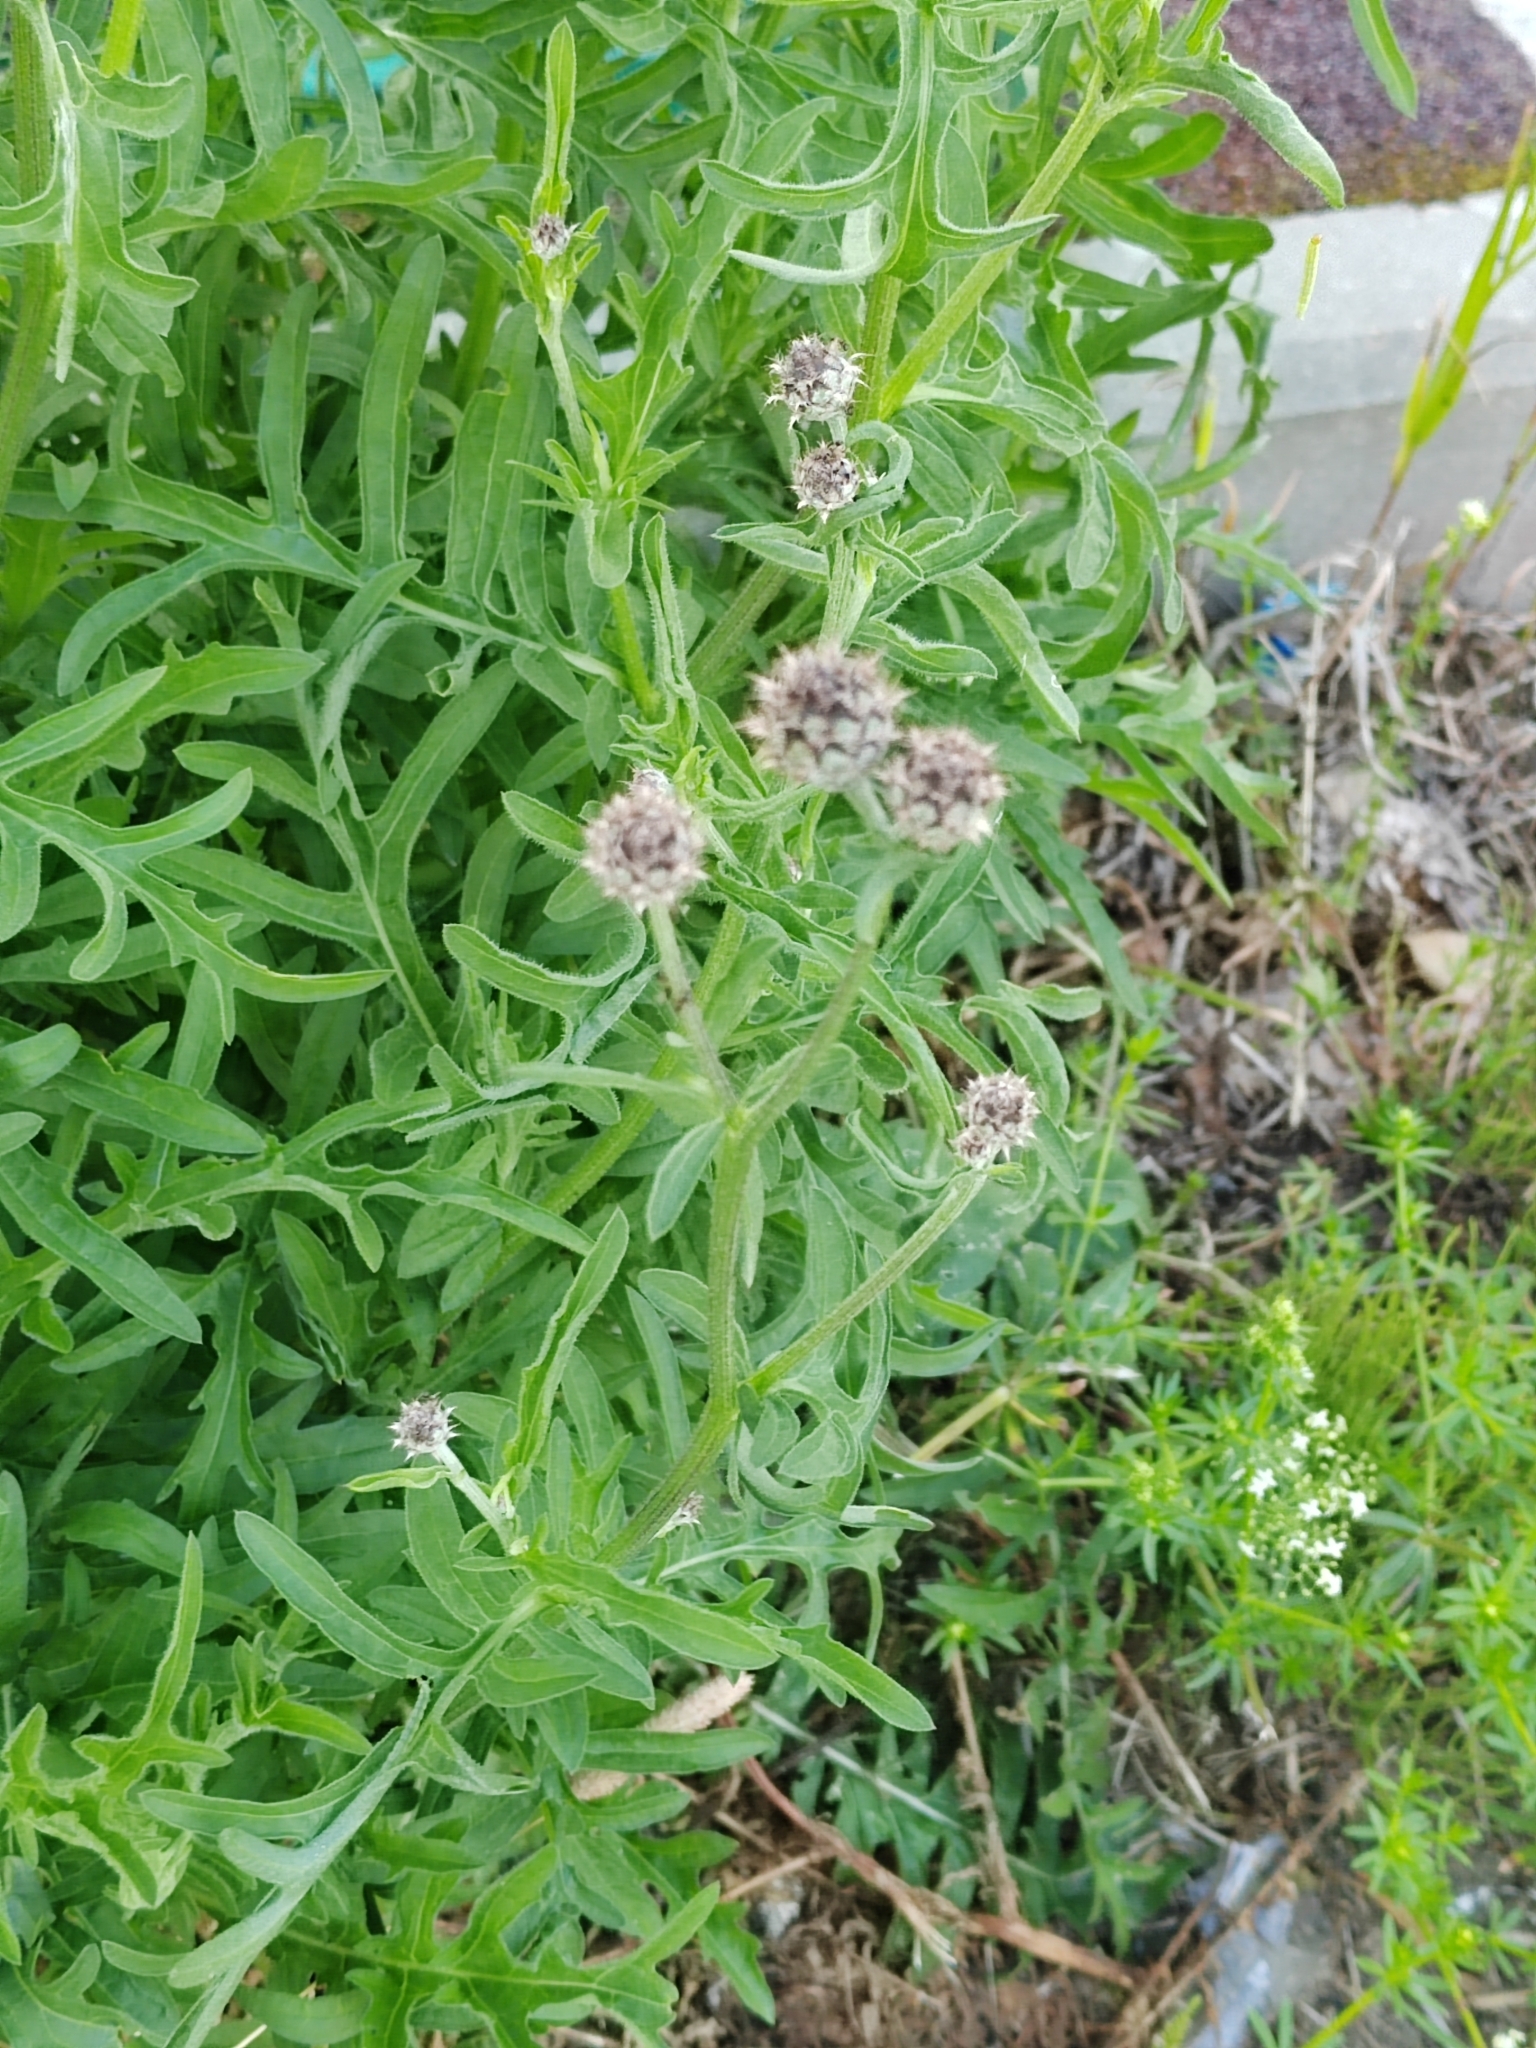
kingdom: Plantae
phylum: Tracheophyta
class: Magnoliopsida
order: Asterales
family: Asteraceae
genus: Centaurea
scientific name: Centaurea scabiosa
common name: Greater knapweed
